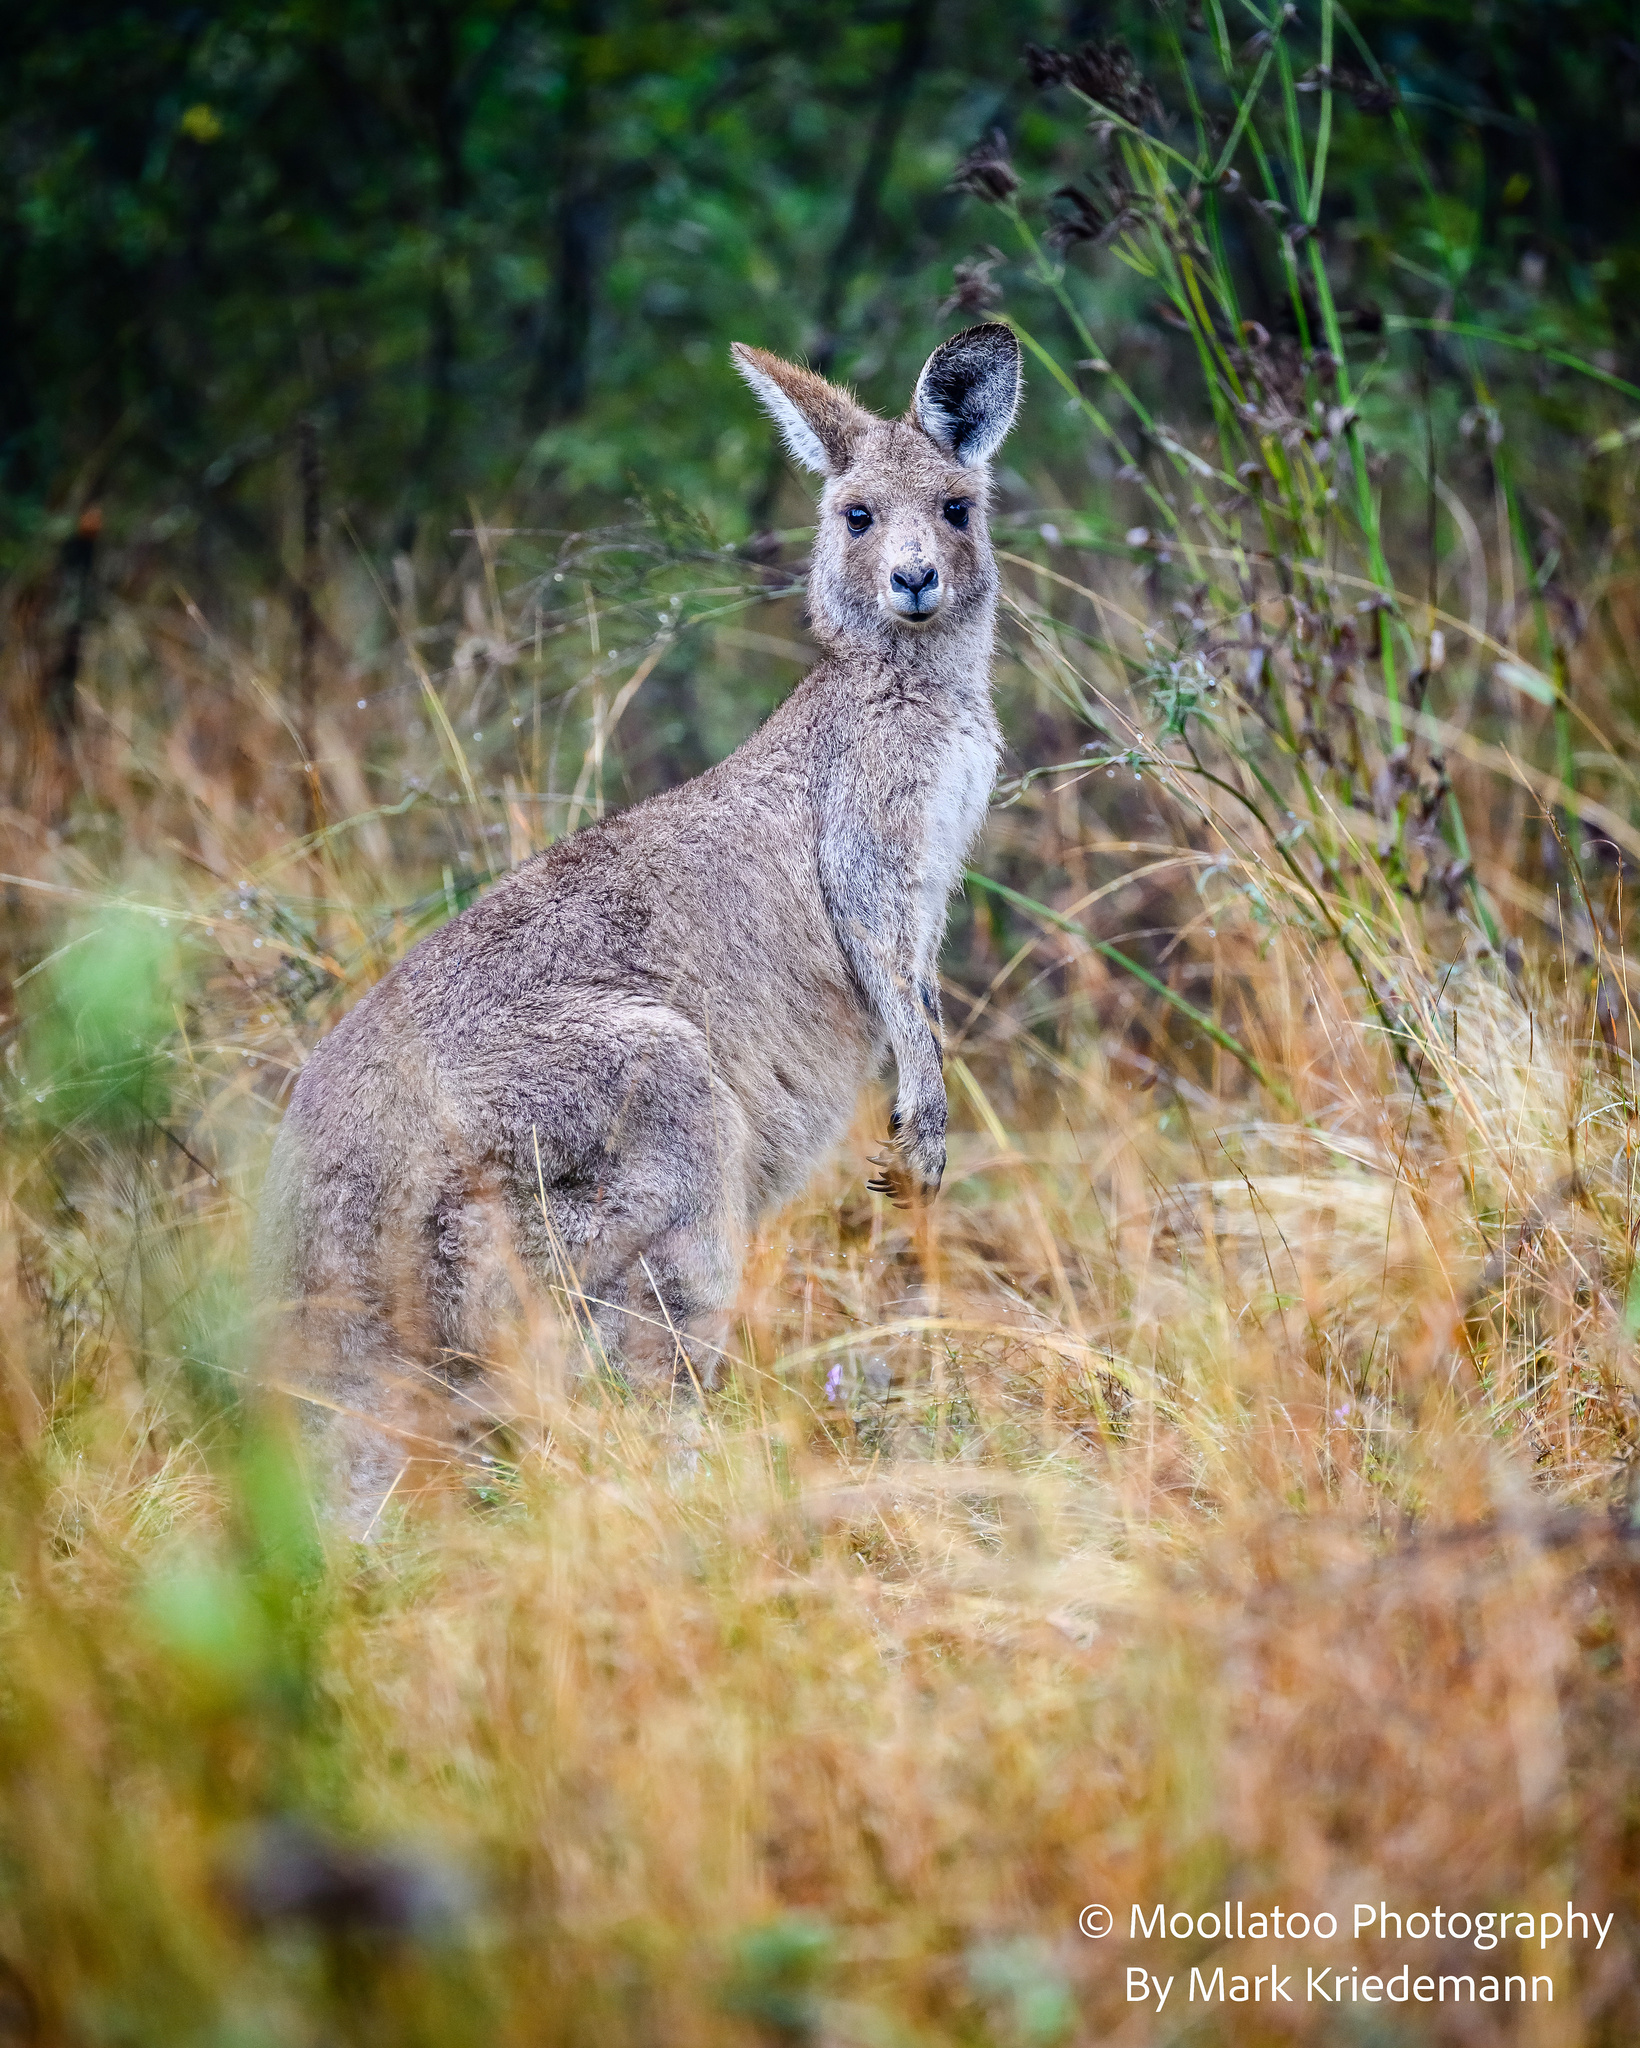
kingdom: Animalia
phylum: Chordata
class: Mammalia
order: Diprotodontia
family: Macropodidae
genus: Macropus
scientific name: Macropus giganteus
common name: Eastern grey kangaroo
